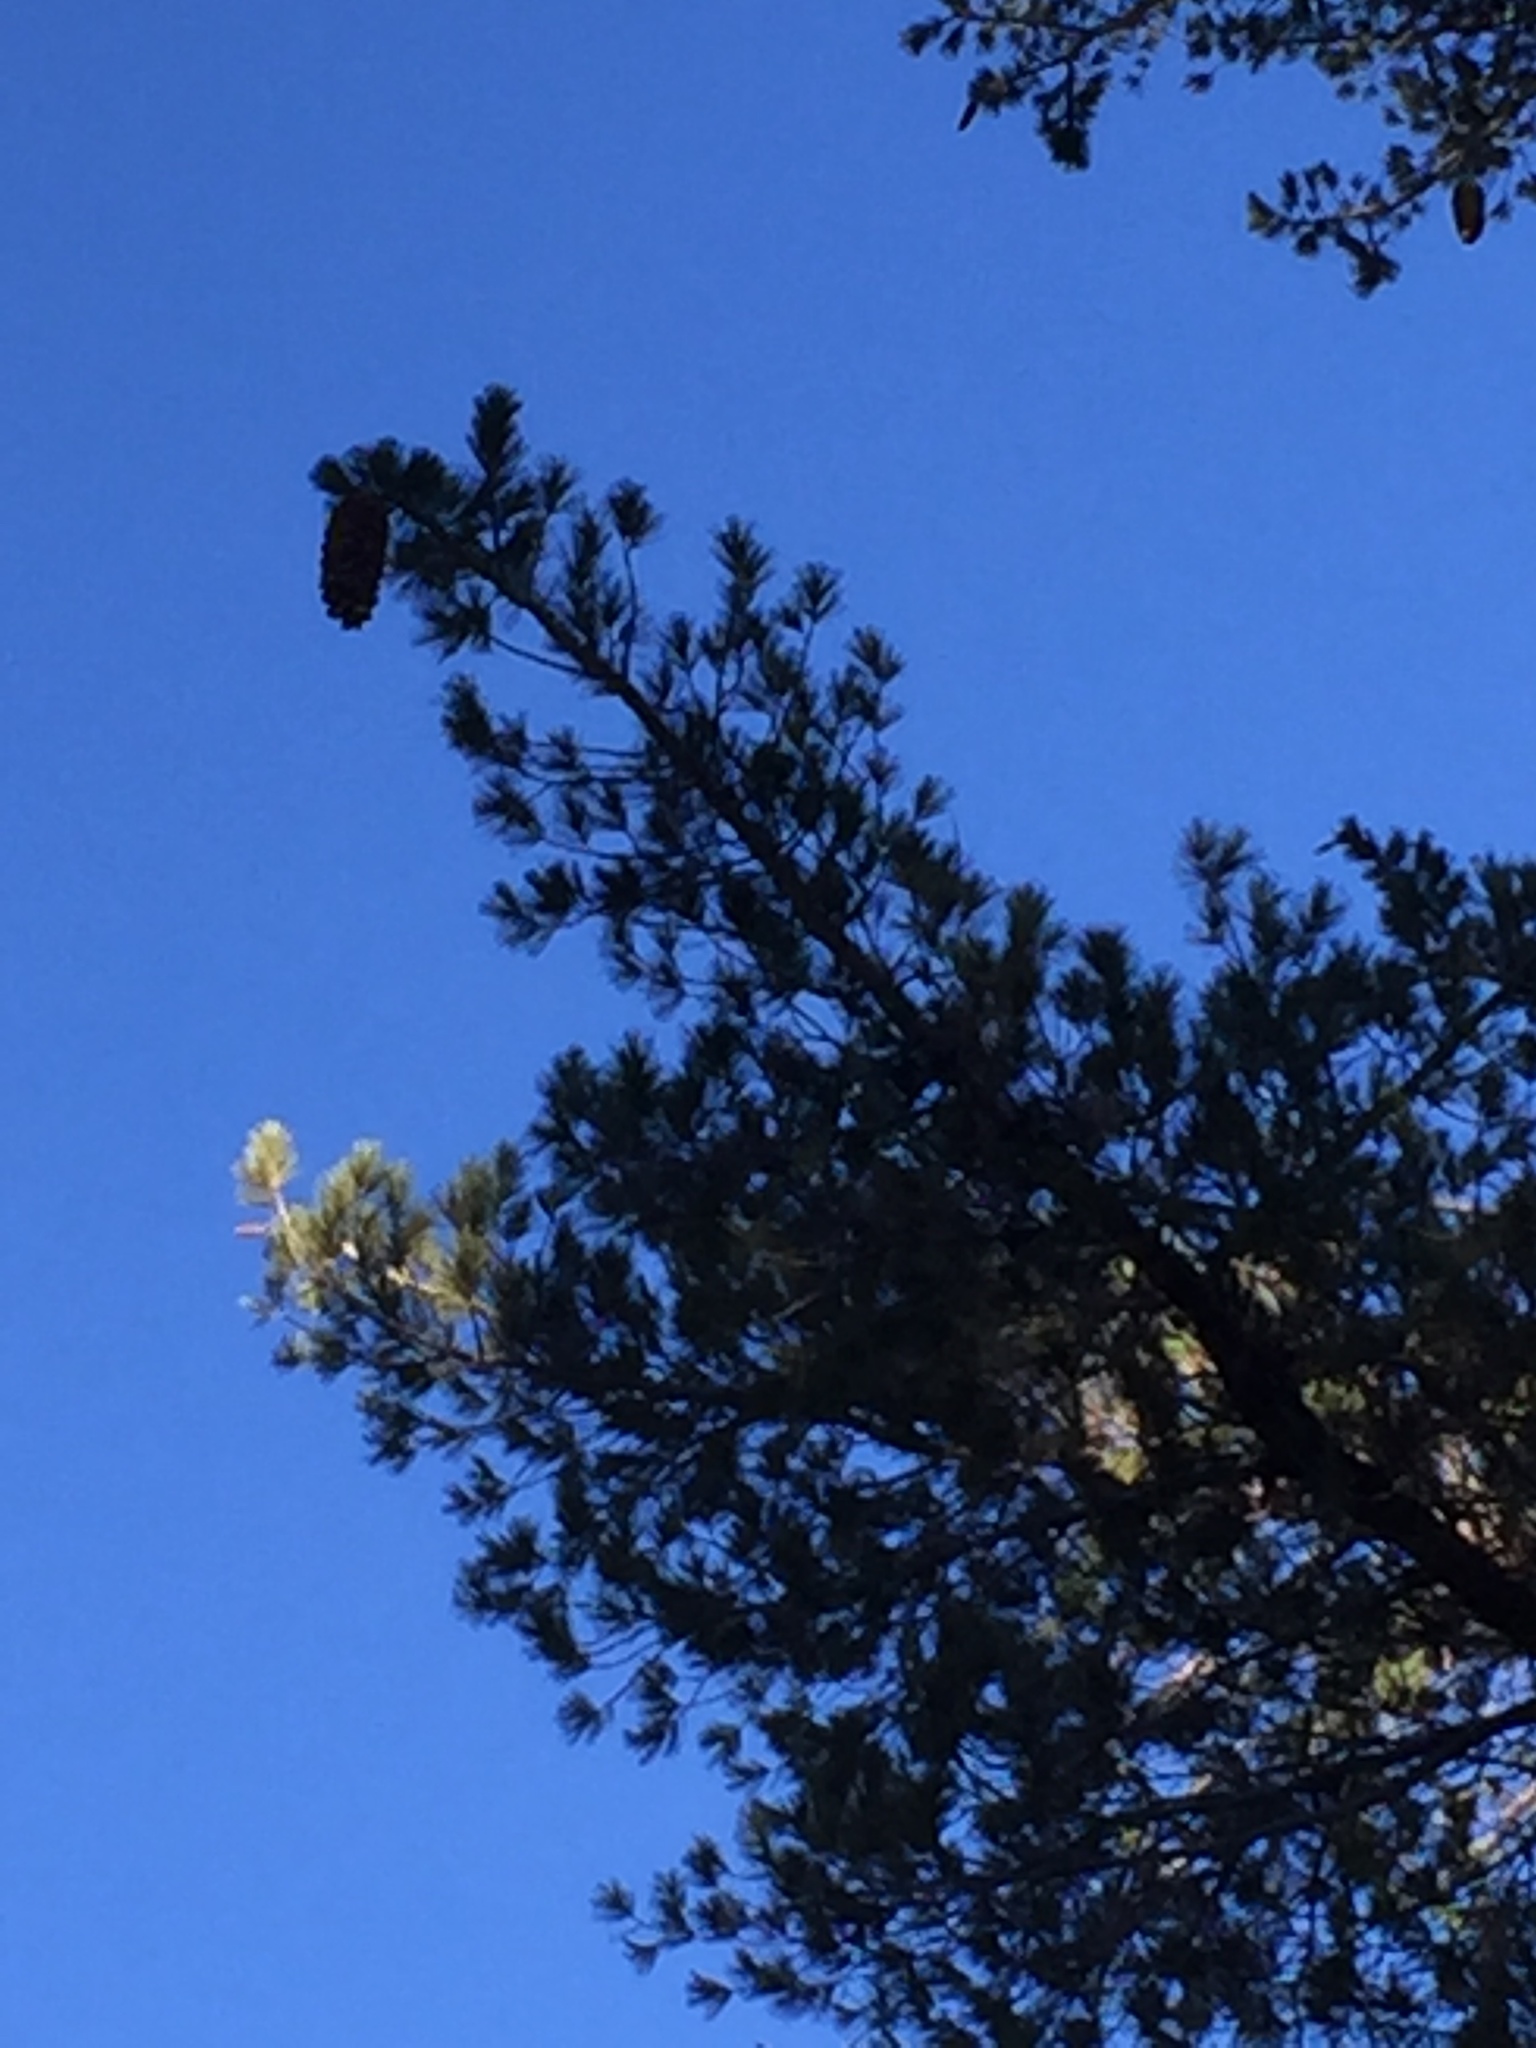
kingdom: Plantae
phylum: Tracheophyta
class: Pinopsida
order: Pinales
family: Pinaceae
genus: Pinus
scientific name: Pinus lambertiana
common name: Sugar pine
